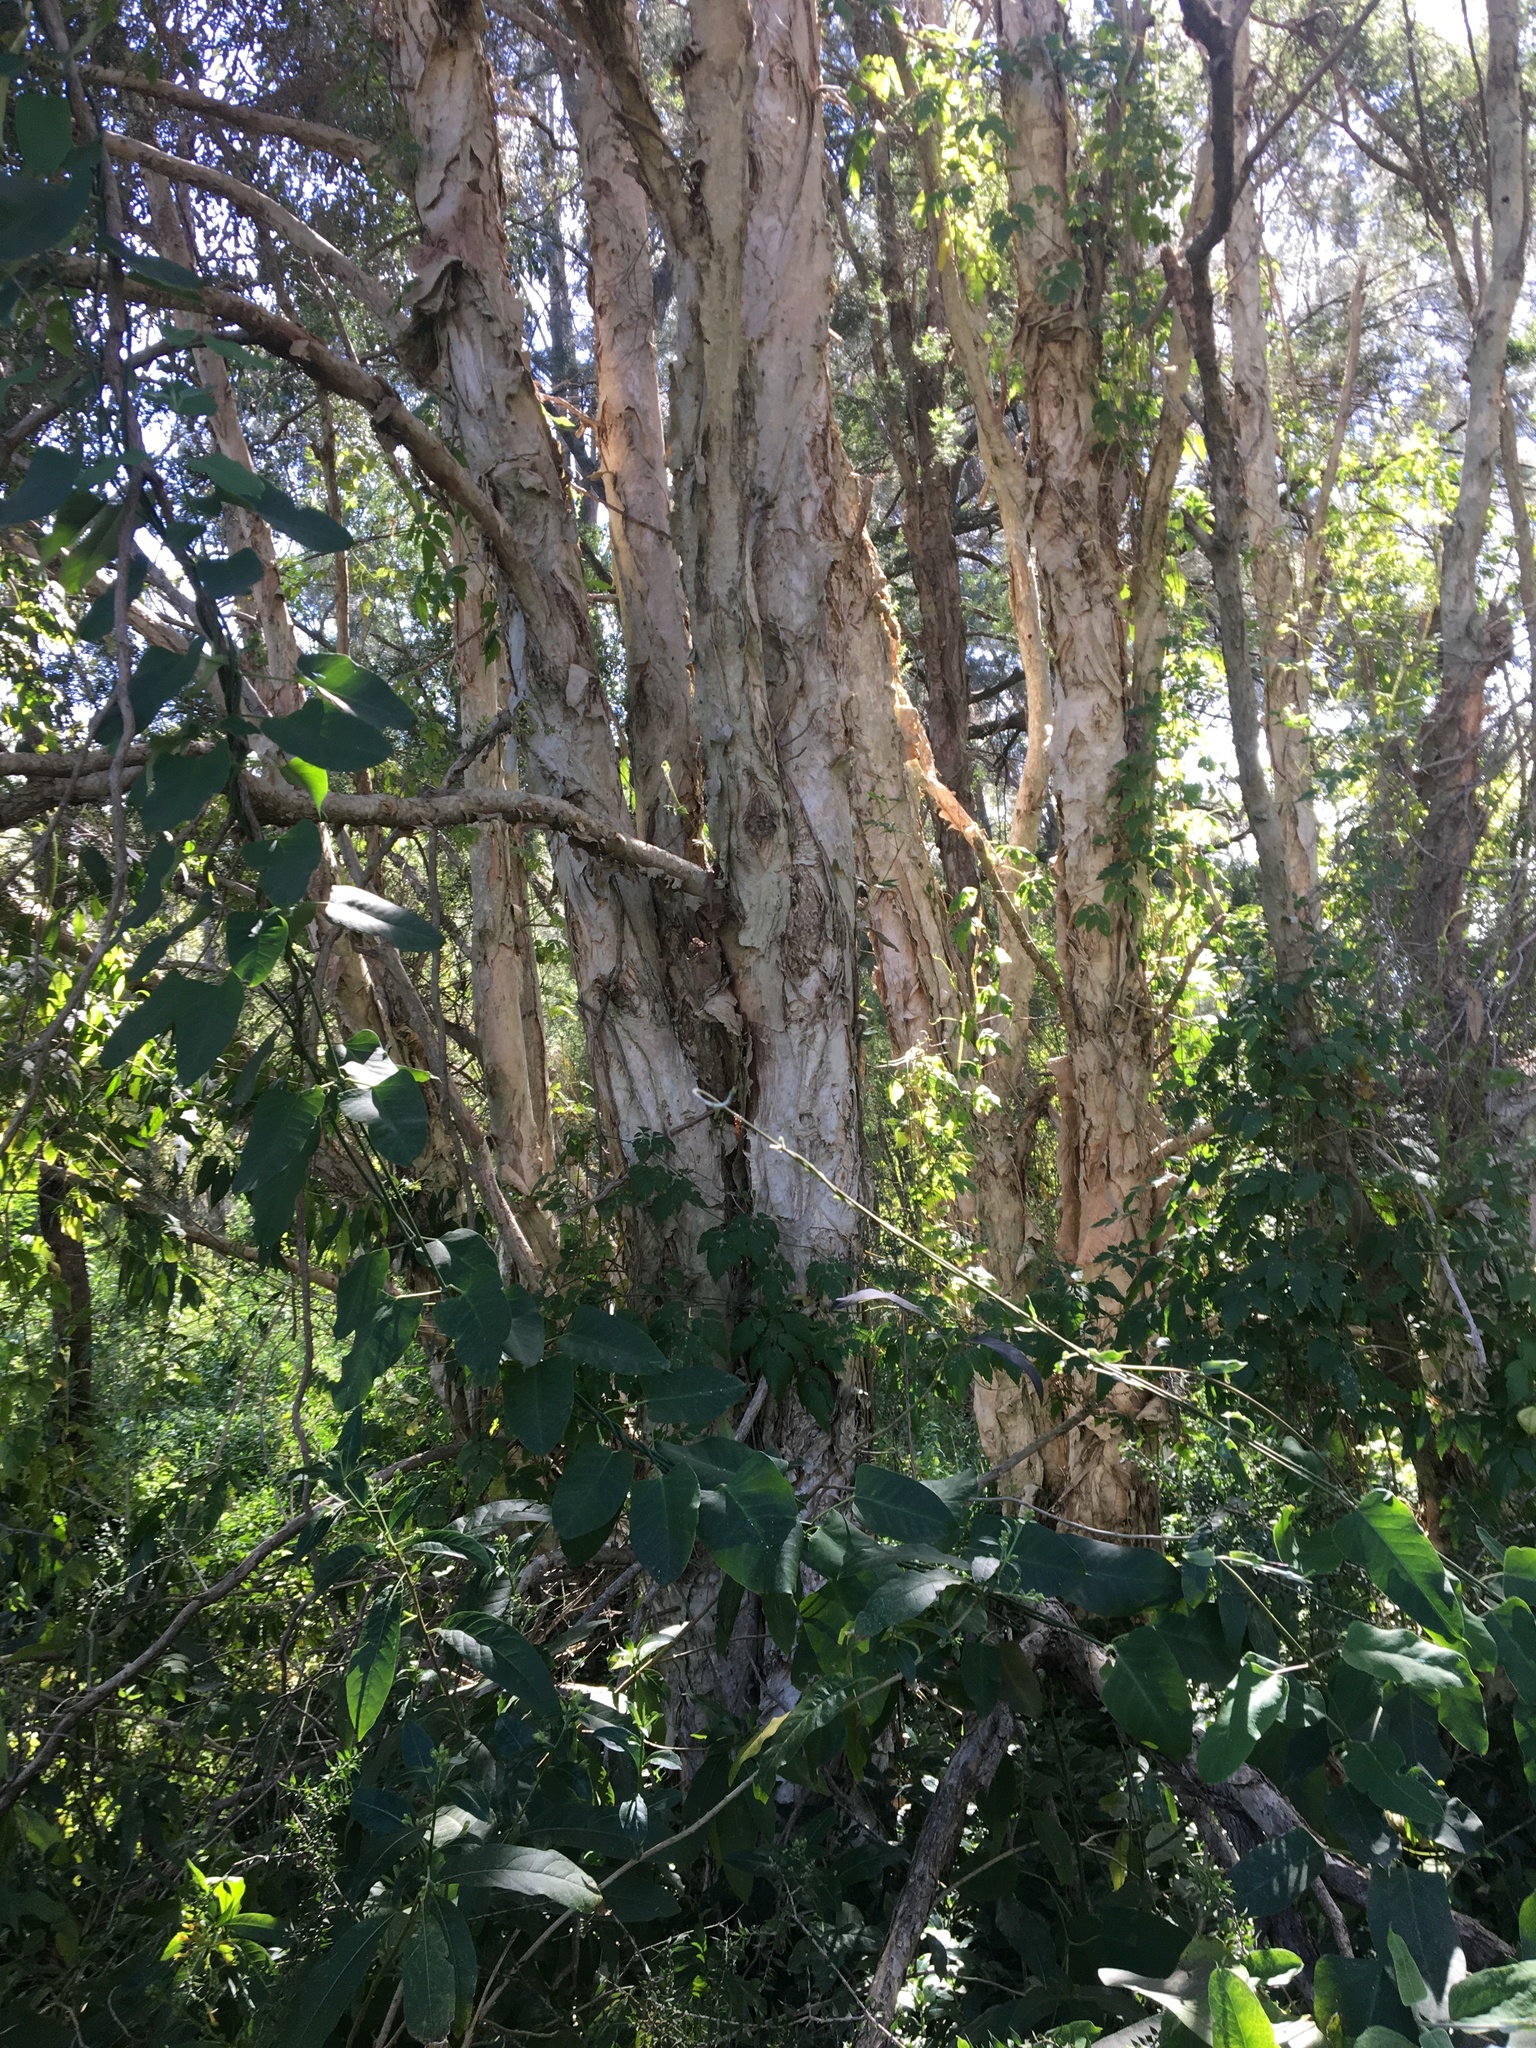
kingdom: Plantae
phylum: Tracheophyta
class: Magnoliopsida
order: Myrtales
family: Myrtaceae
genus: Melaleuca
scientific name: Melaleuca styphelioides
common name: Prickly paperbark
